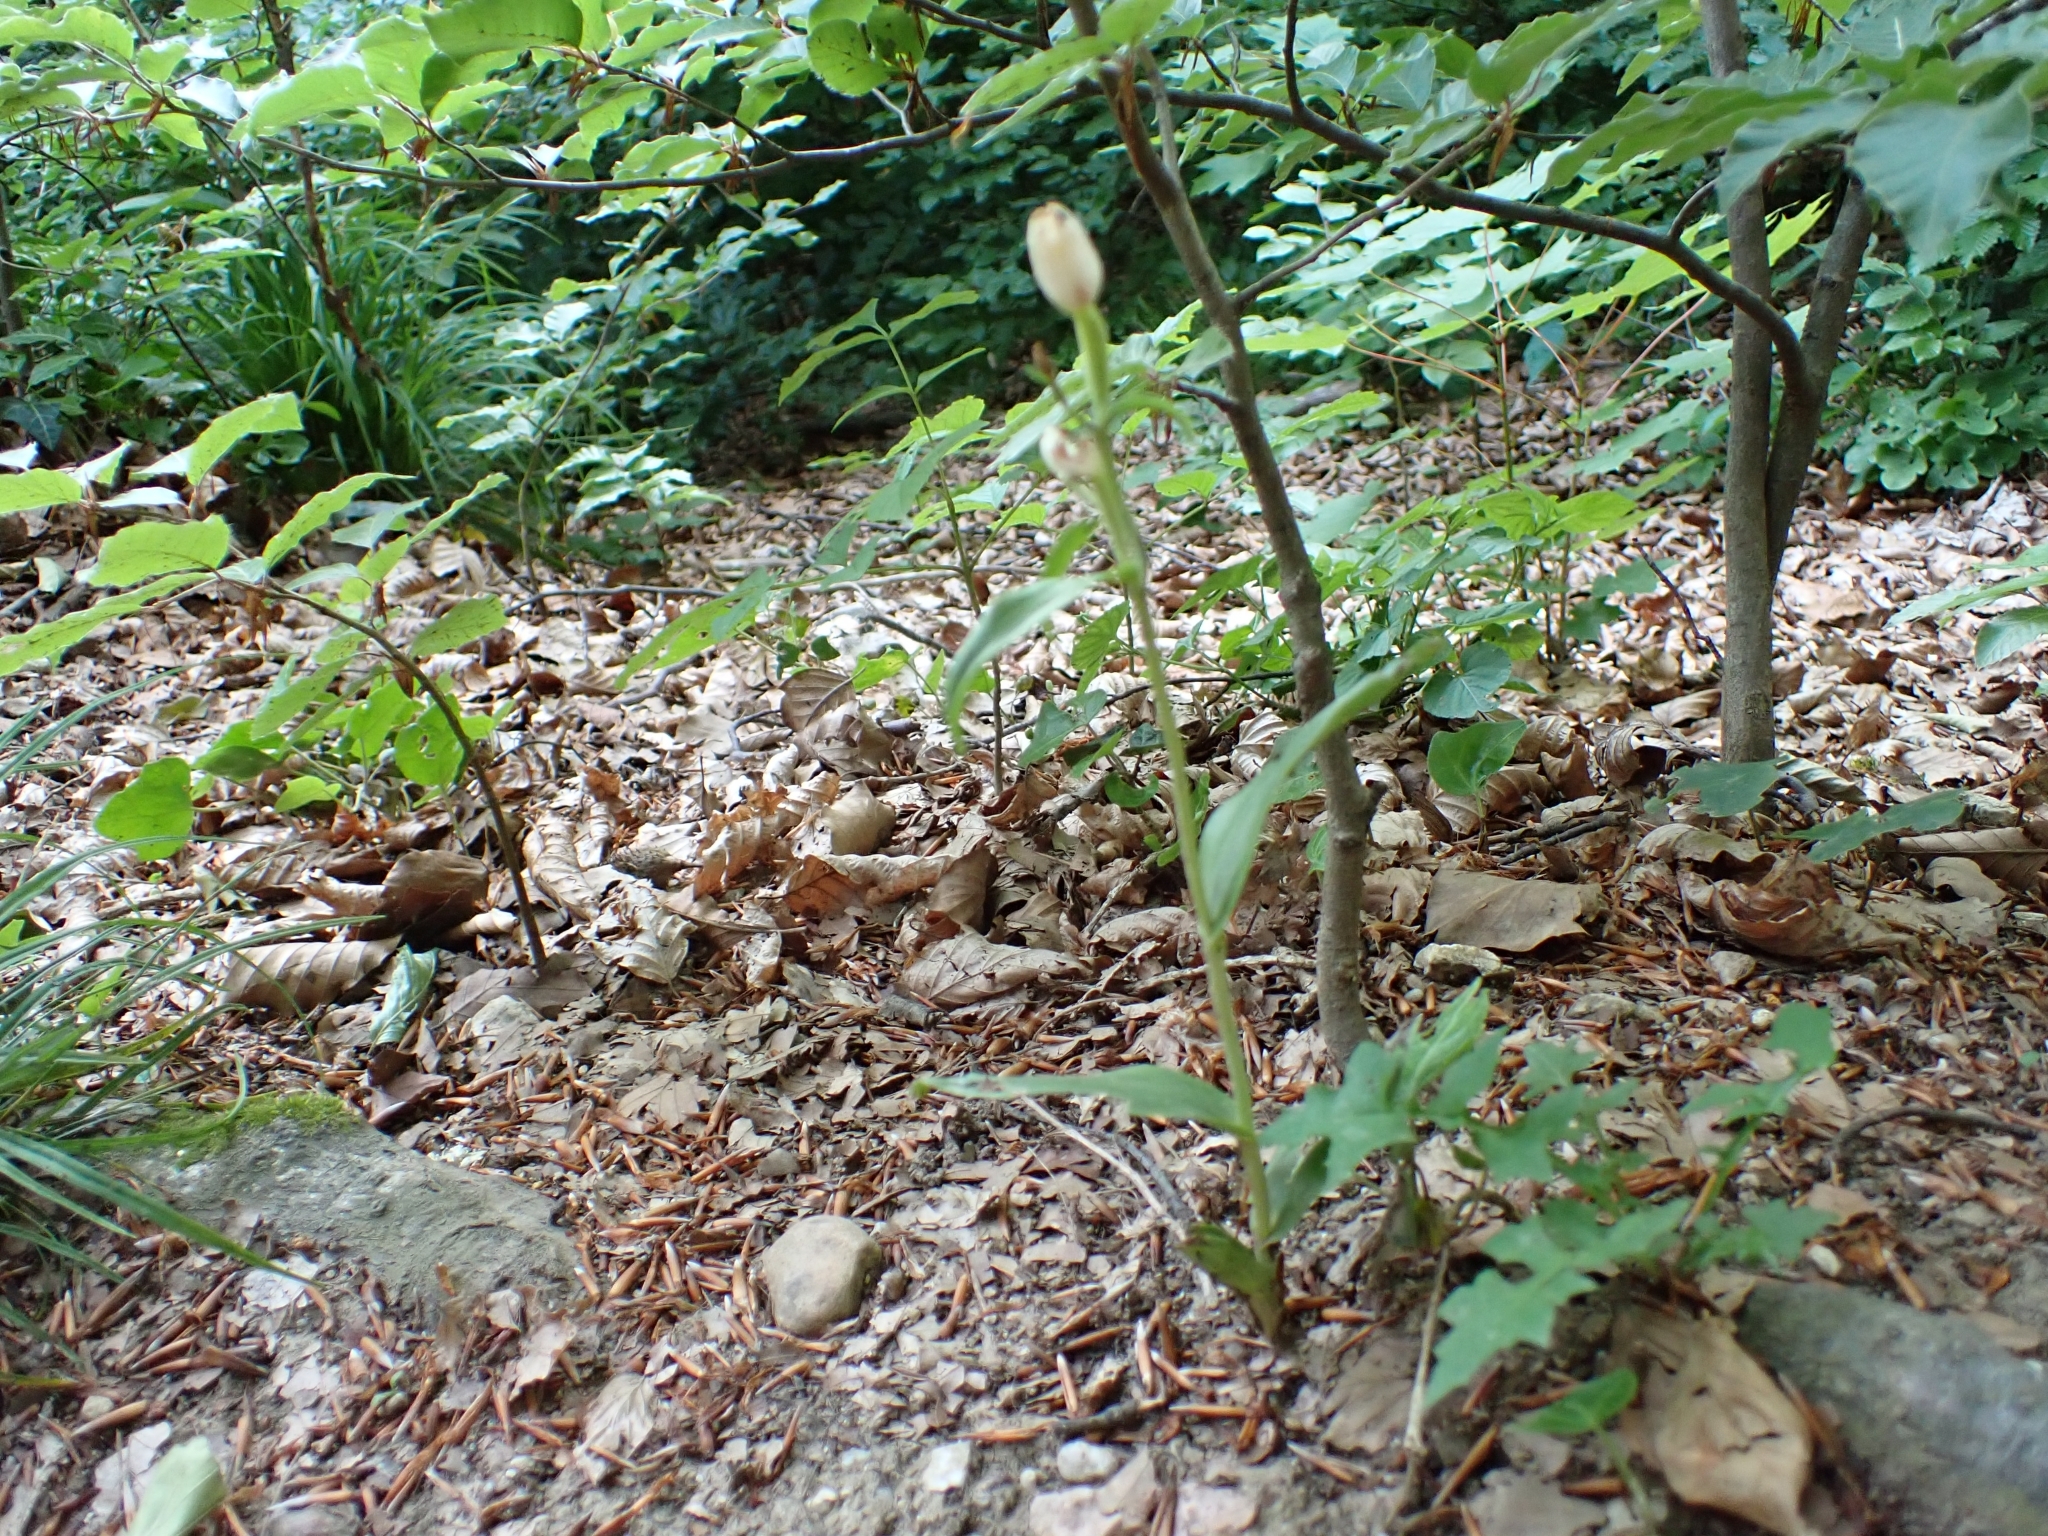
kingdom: Plantae
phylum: Tracheophyta
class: Liliopsida
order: Asparagales
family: Orchidaceae
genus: Cephalanthera
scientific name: Cephalanthera damasonium
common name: White helleborine
